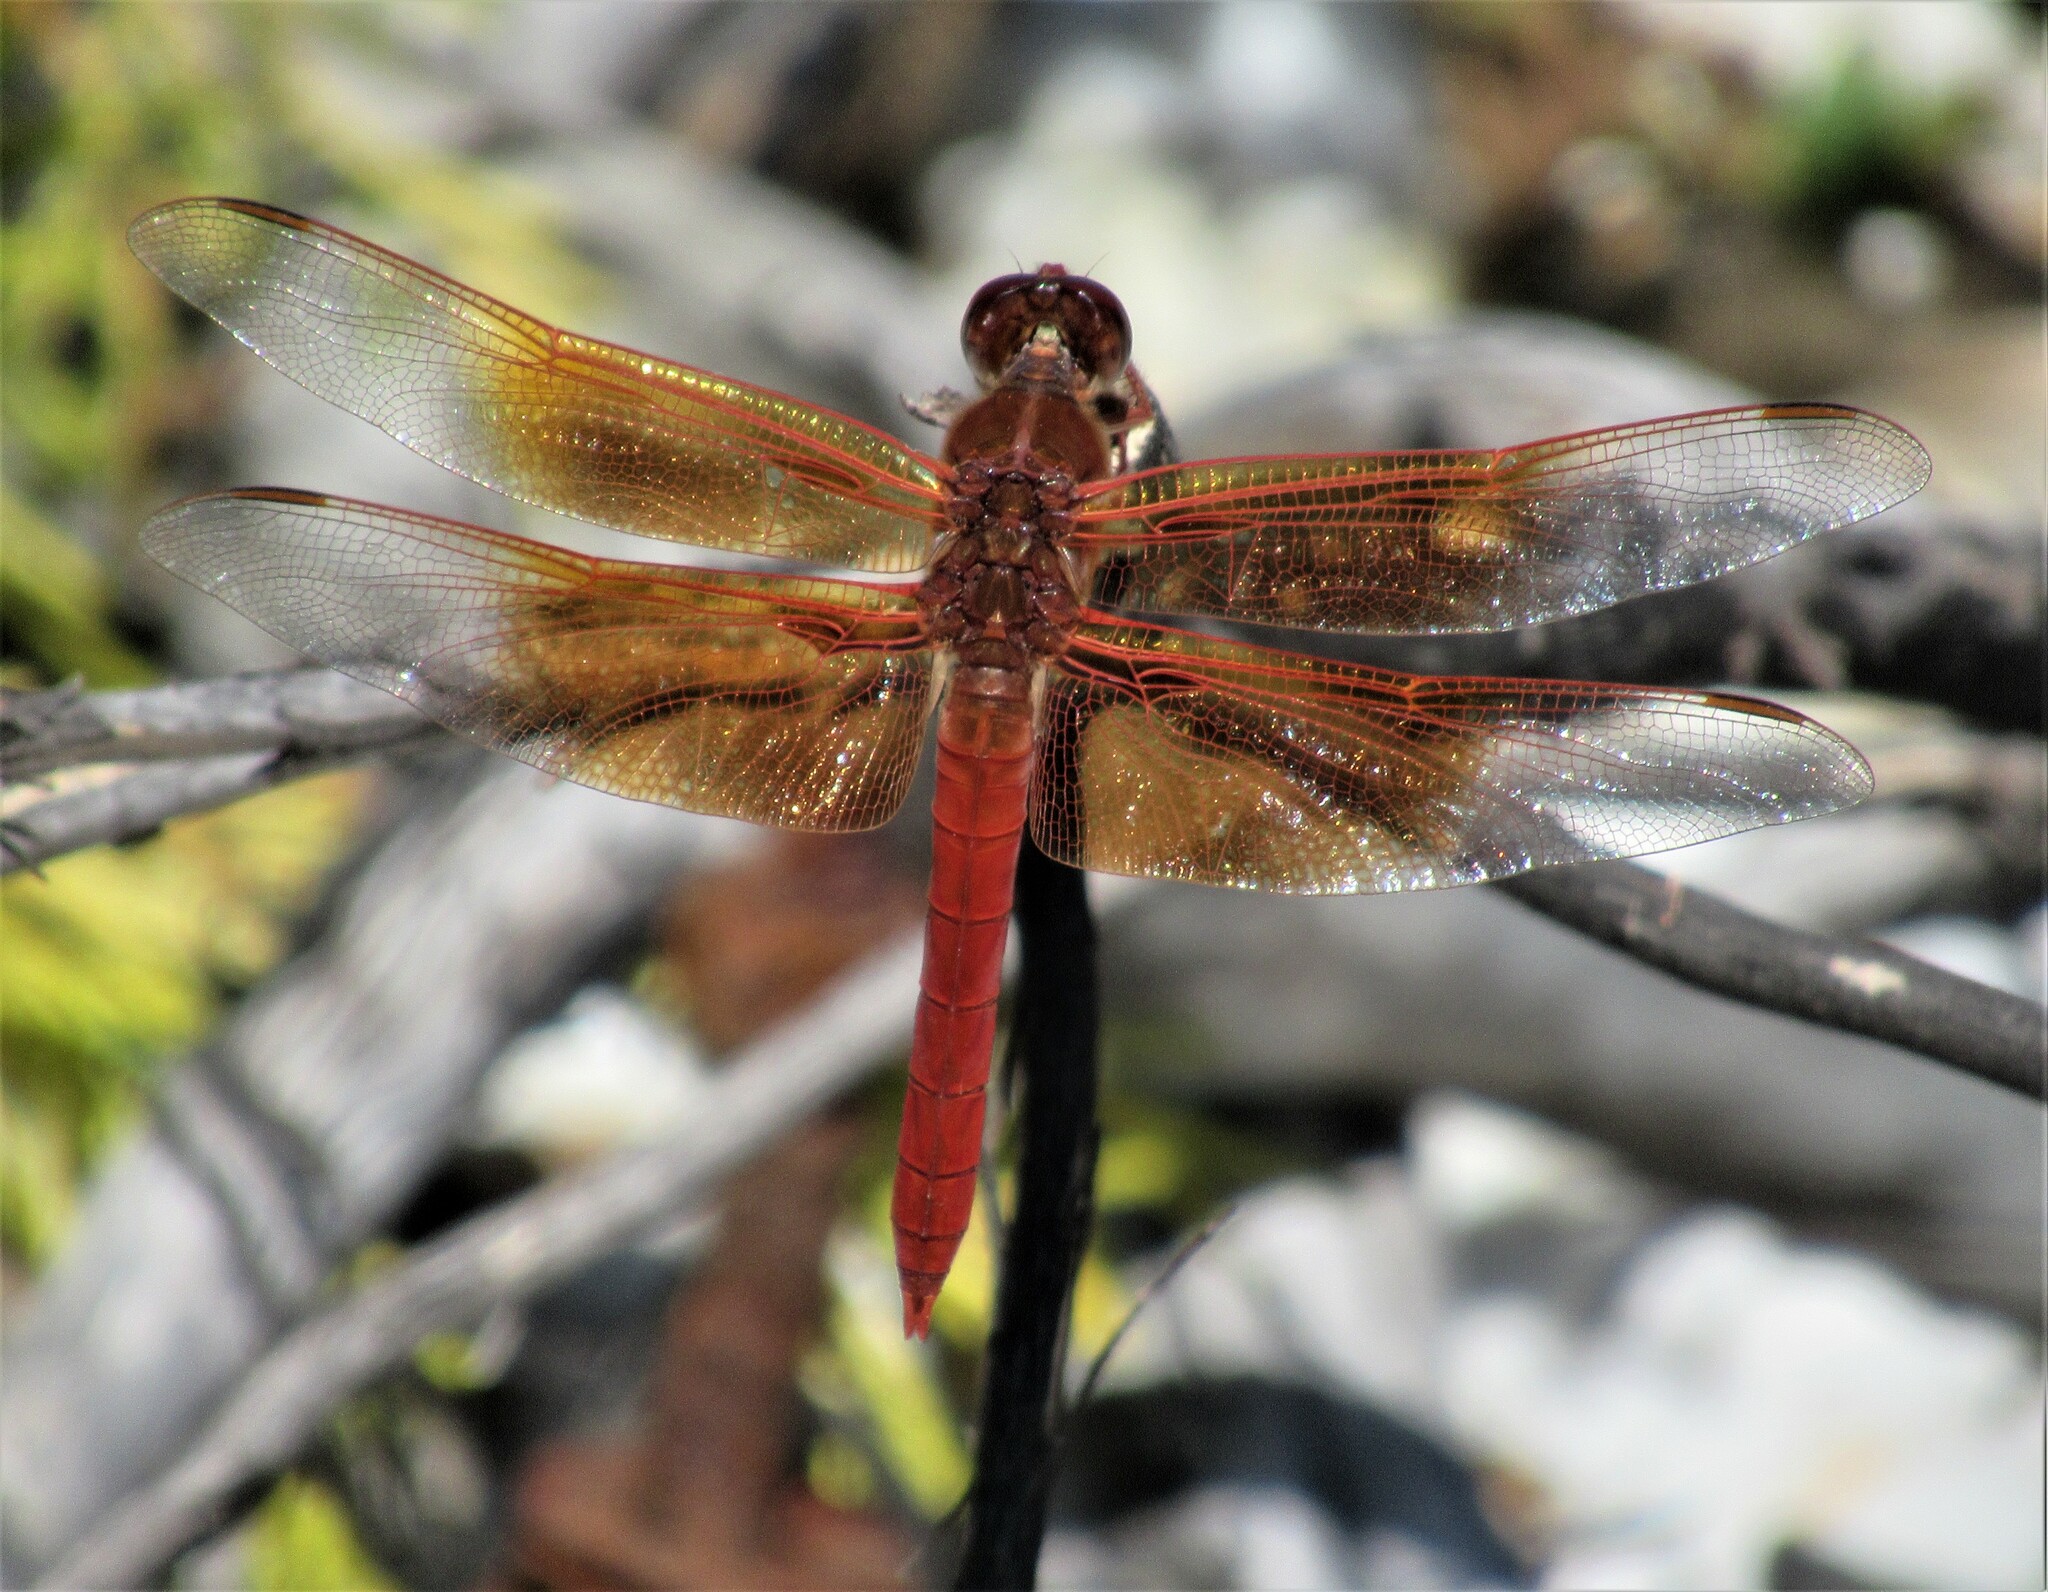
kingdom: Animalia
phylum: Arthropoda
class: Insecta
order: Odonata
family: Libellulidae
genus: Libellula
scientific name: Libellula saturata
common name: Flame skimmer
